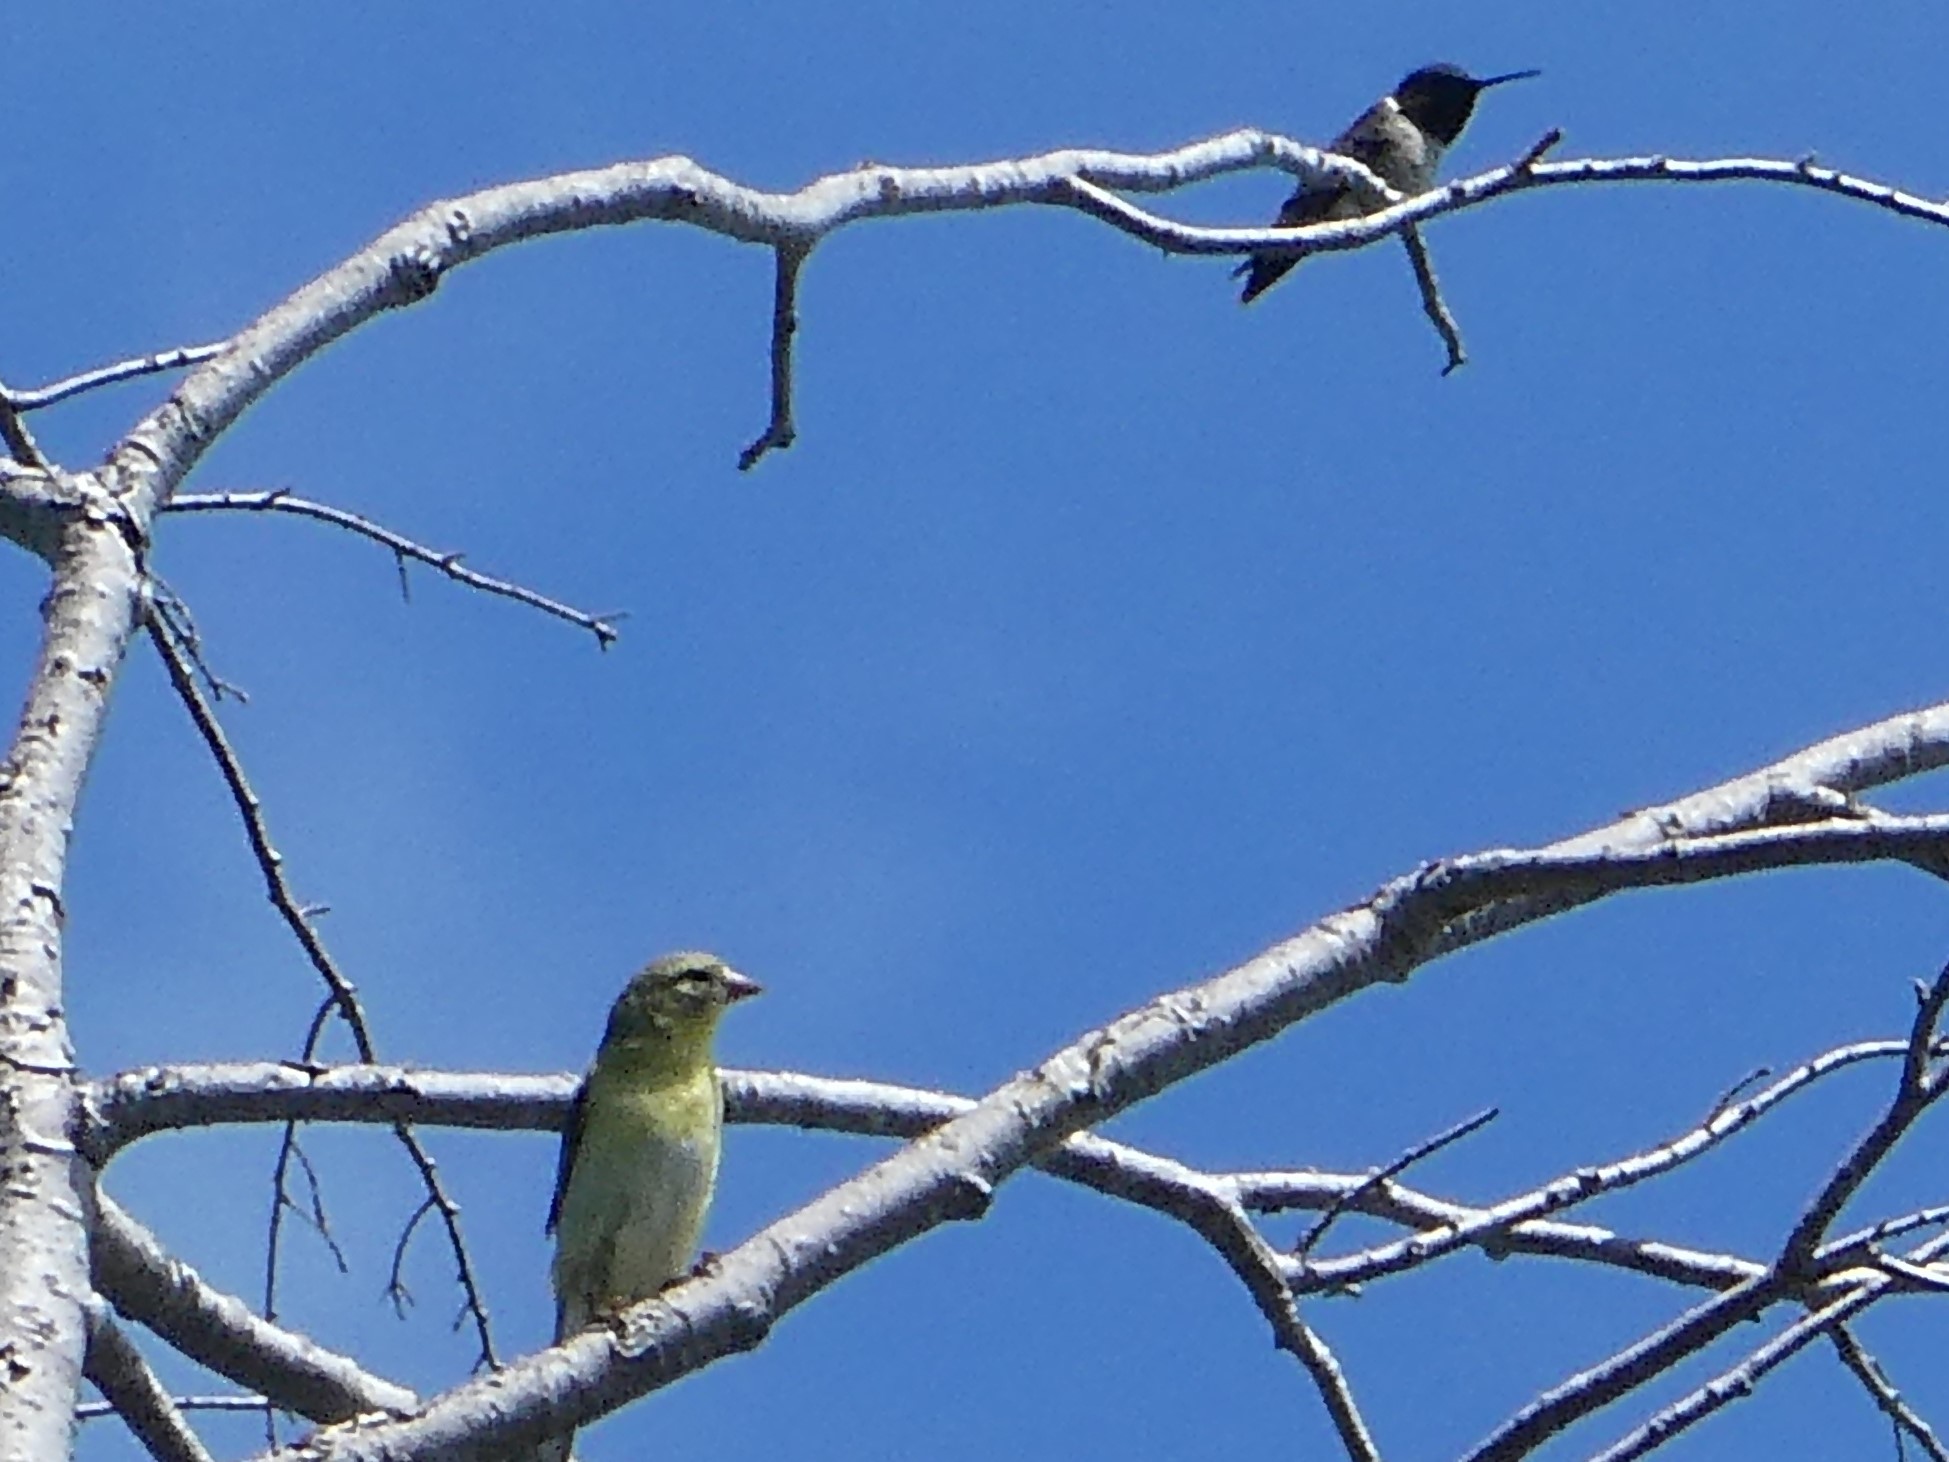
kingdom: Animalia
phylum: Chordata
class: Aves
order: Passeriformes
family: Fringillidae
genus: Spinus
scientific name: Spinus tristis
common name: American goldfinch
